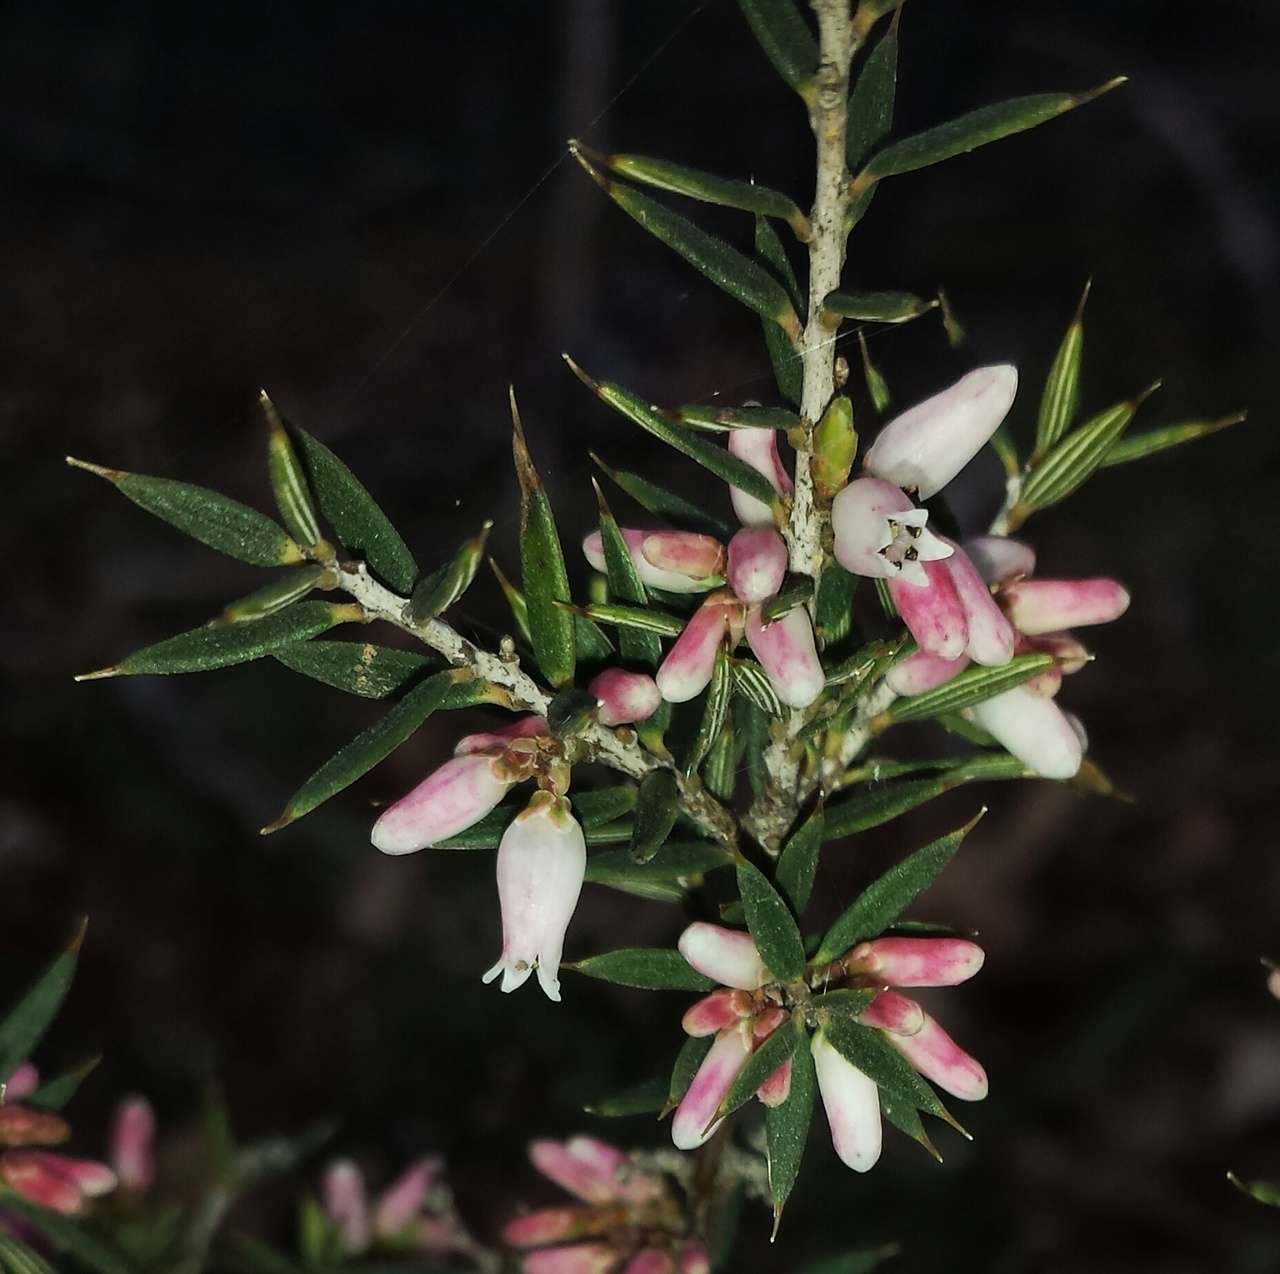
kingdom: Plantae
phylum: Tracheophyta
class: Magnoliopsida
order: Ericales
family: Ericaceae
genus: Lissanthe
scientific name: Lissanthe strigosa
